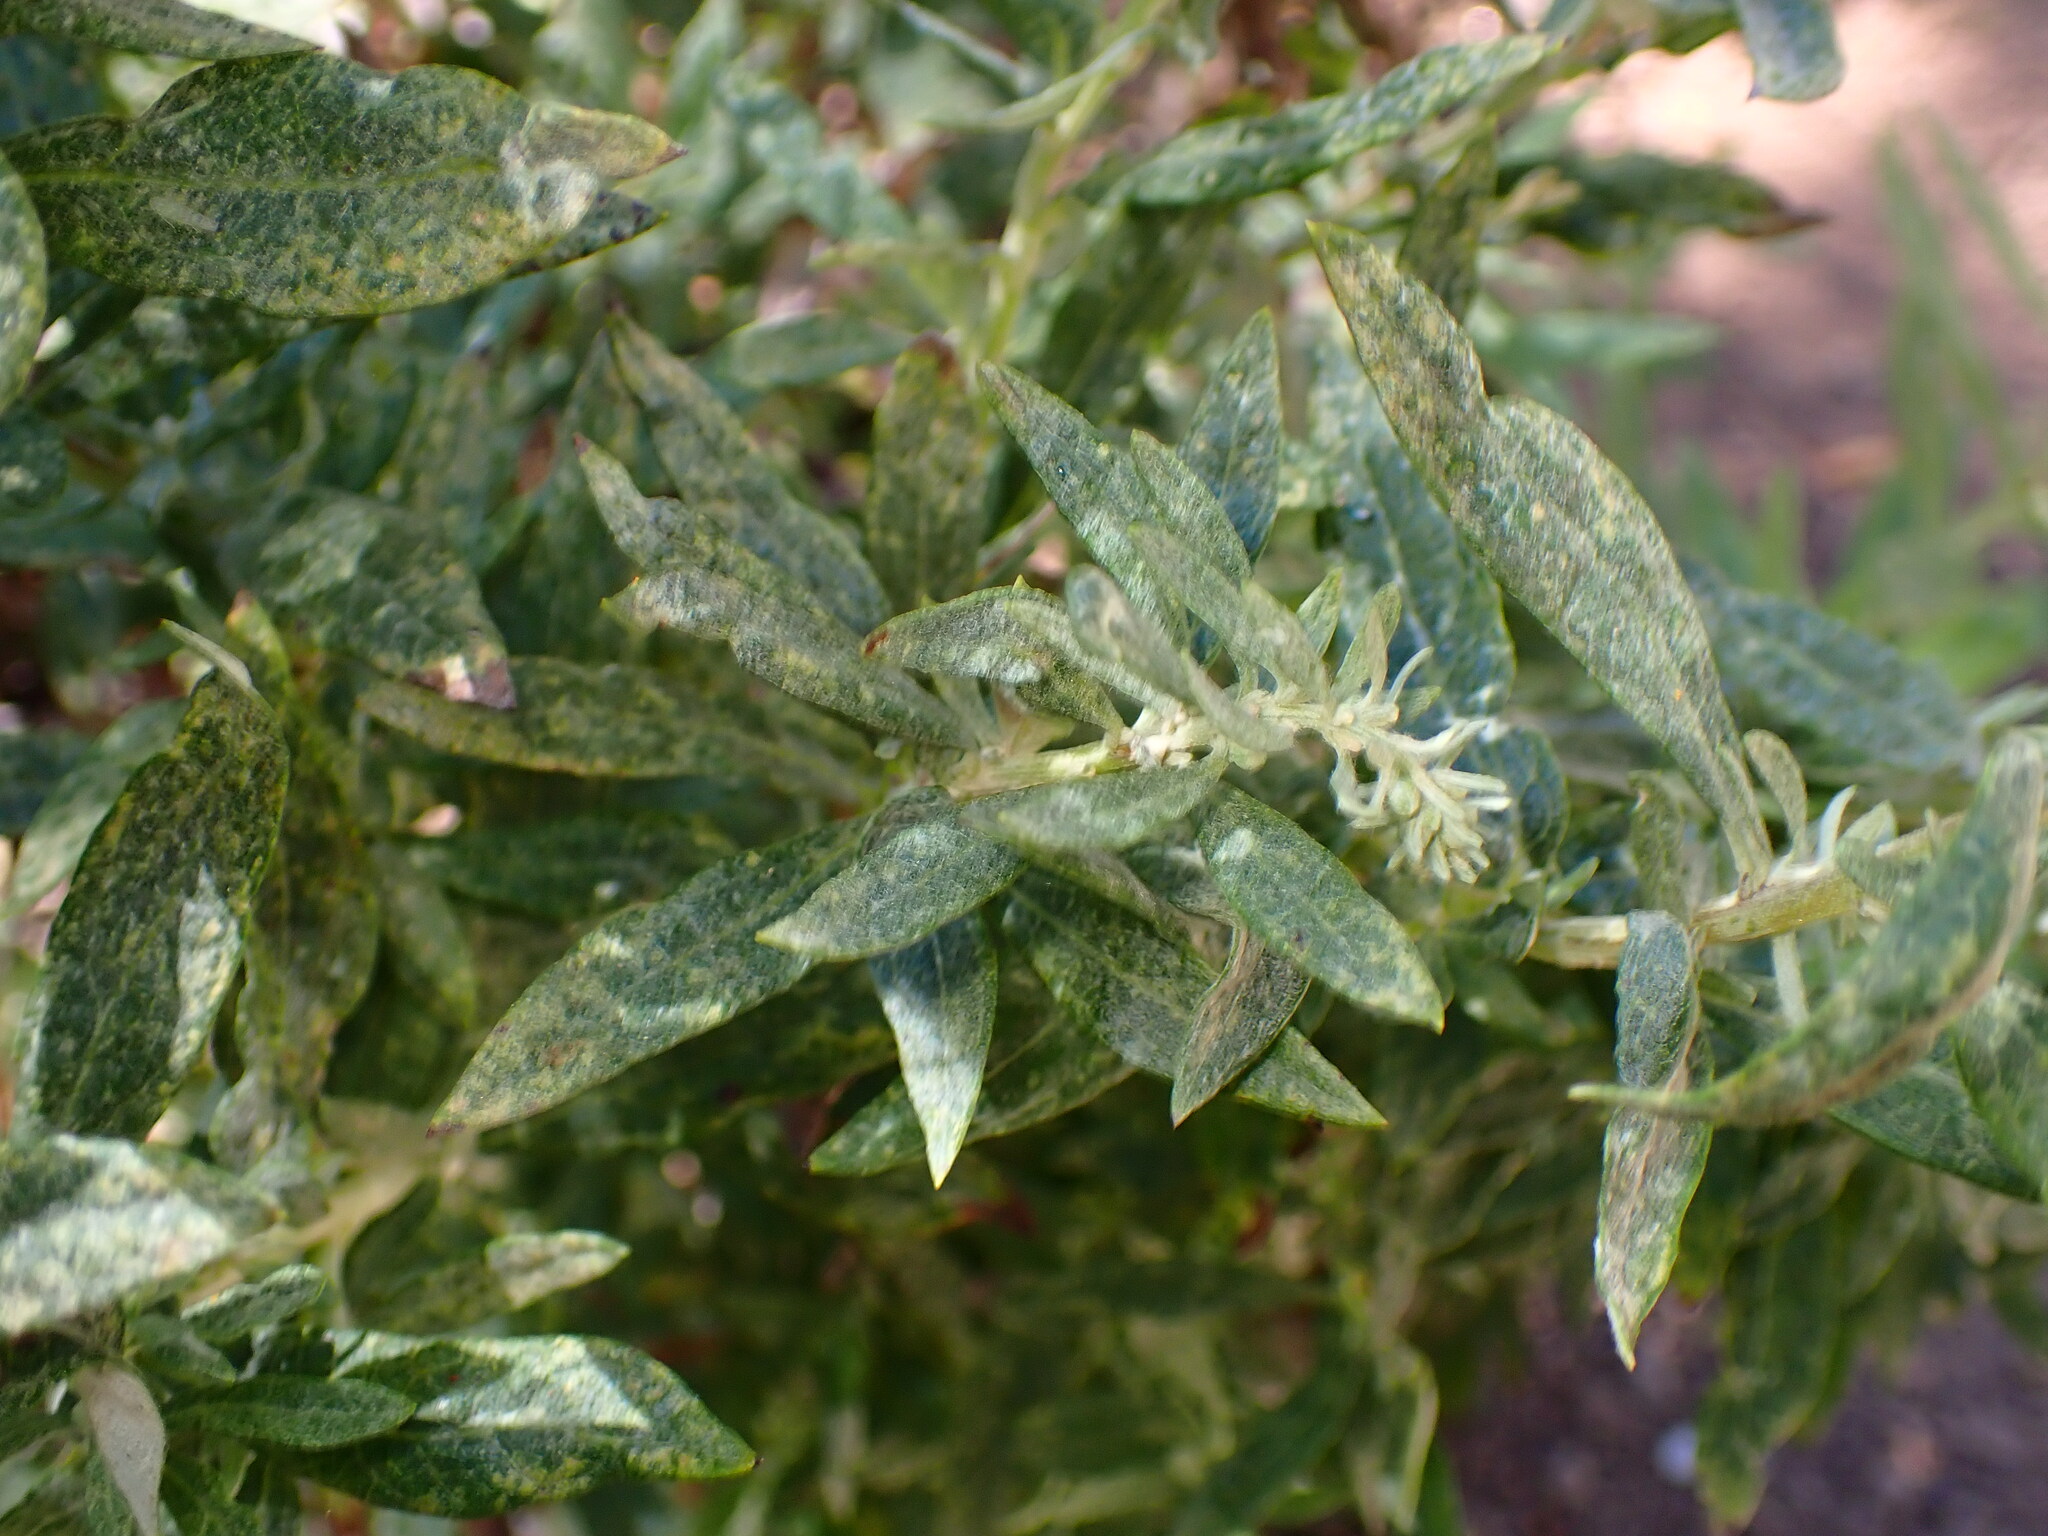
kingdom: Plantae
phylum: Tracheophyta
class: Magnoliopsida
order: Asterales
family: Asteraceae
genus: Artemisia
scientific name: Artemisia douglasiana
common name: Northwest mugwort
